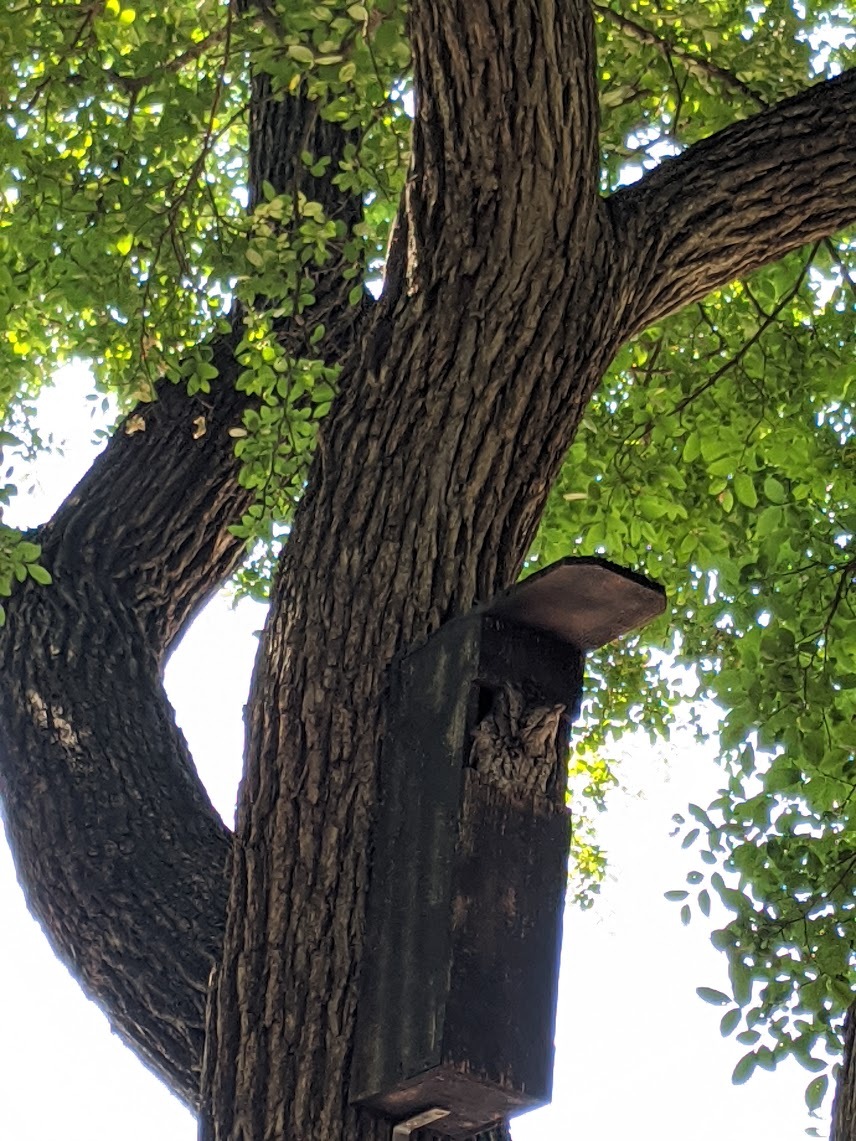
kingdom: Animalia
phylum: Chordata
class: Aves
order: Strigiformes
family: Strigidae
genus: Megascops
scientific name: Megascops asio
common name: Eastern screech-owl
